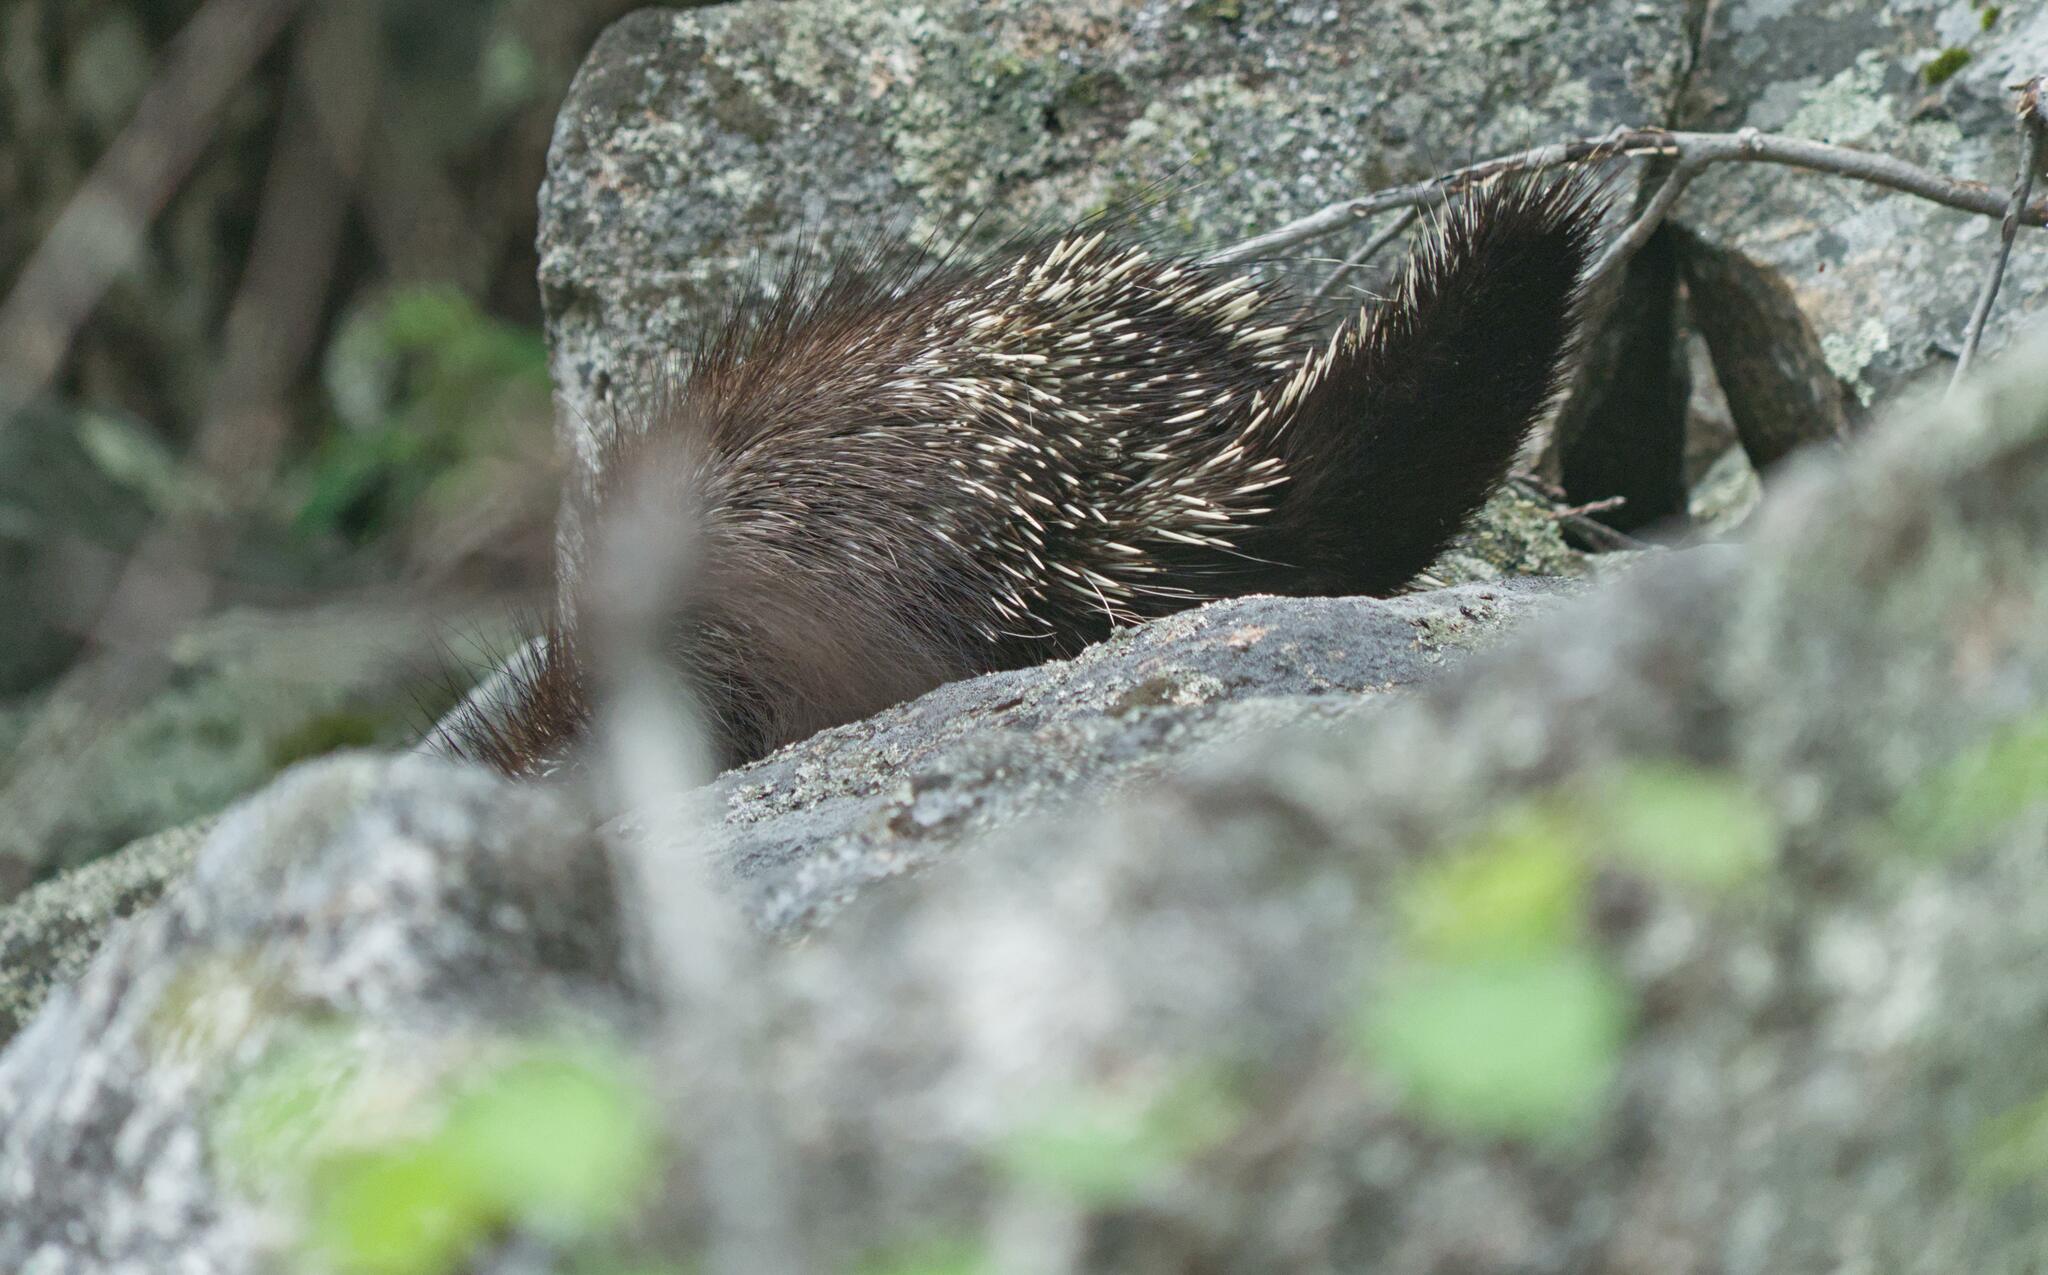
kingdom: Animalia
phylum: Chordata
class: Mammalia
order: Rodentia
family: Erethizontidae
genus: Erethizon
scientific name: Erethizon dorsatus
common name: North american porcupine
